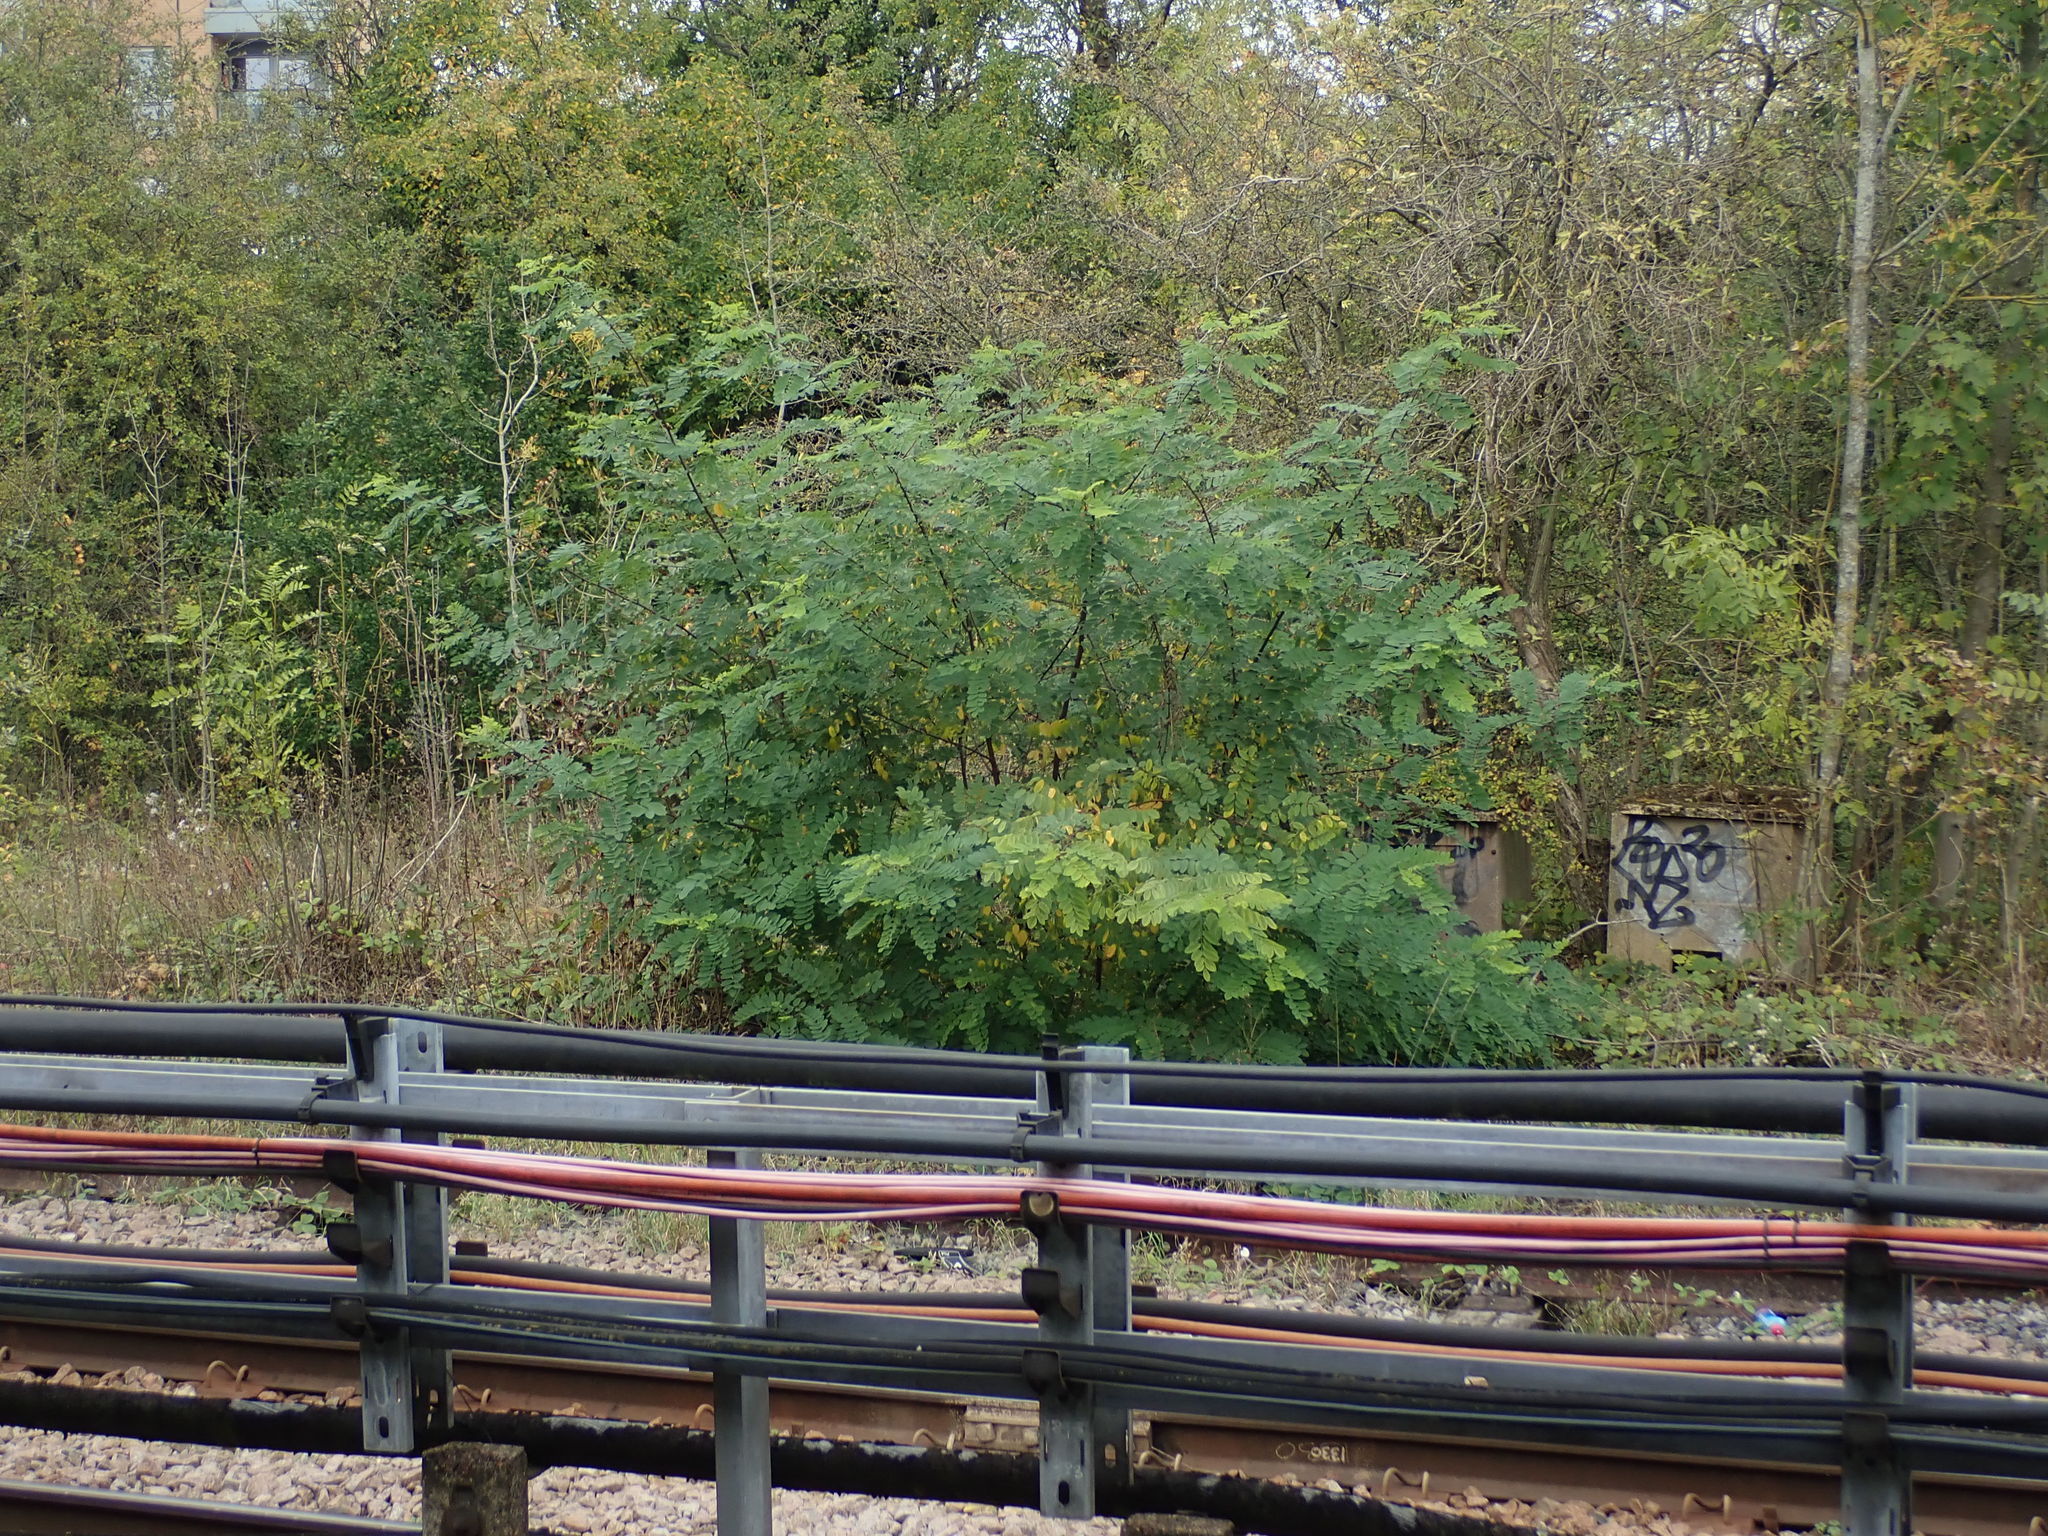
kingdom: Plantae
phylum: Tracheophyta
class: Magnoliopsida
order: Fabales
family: Fabaceae
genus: Robinia
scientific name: Robinia pseudoacacia
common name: Black locust
